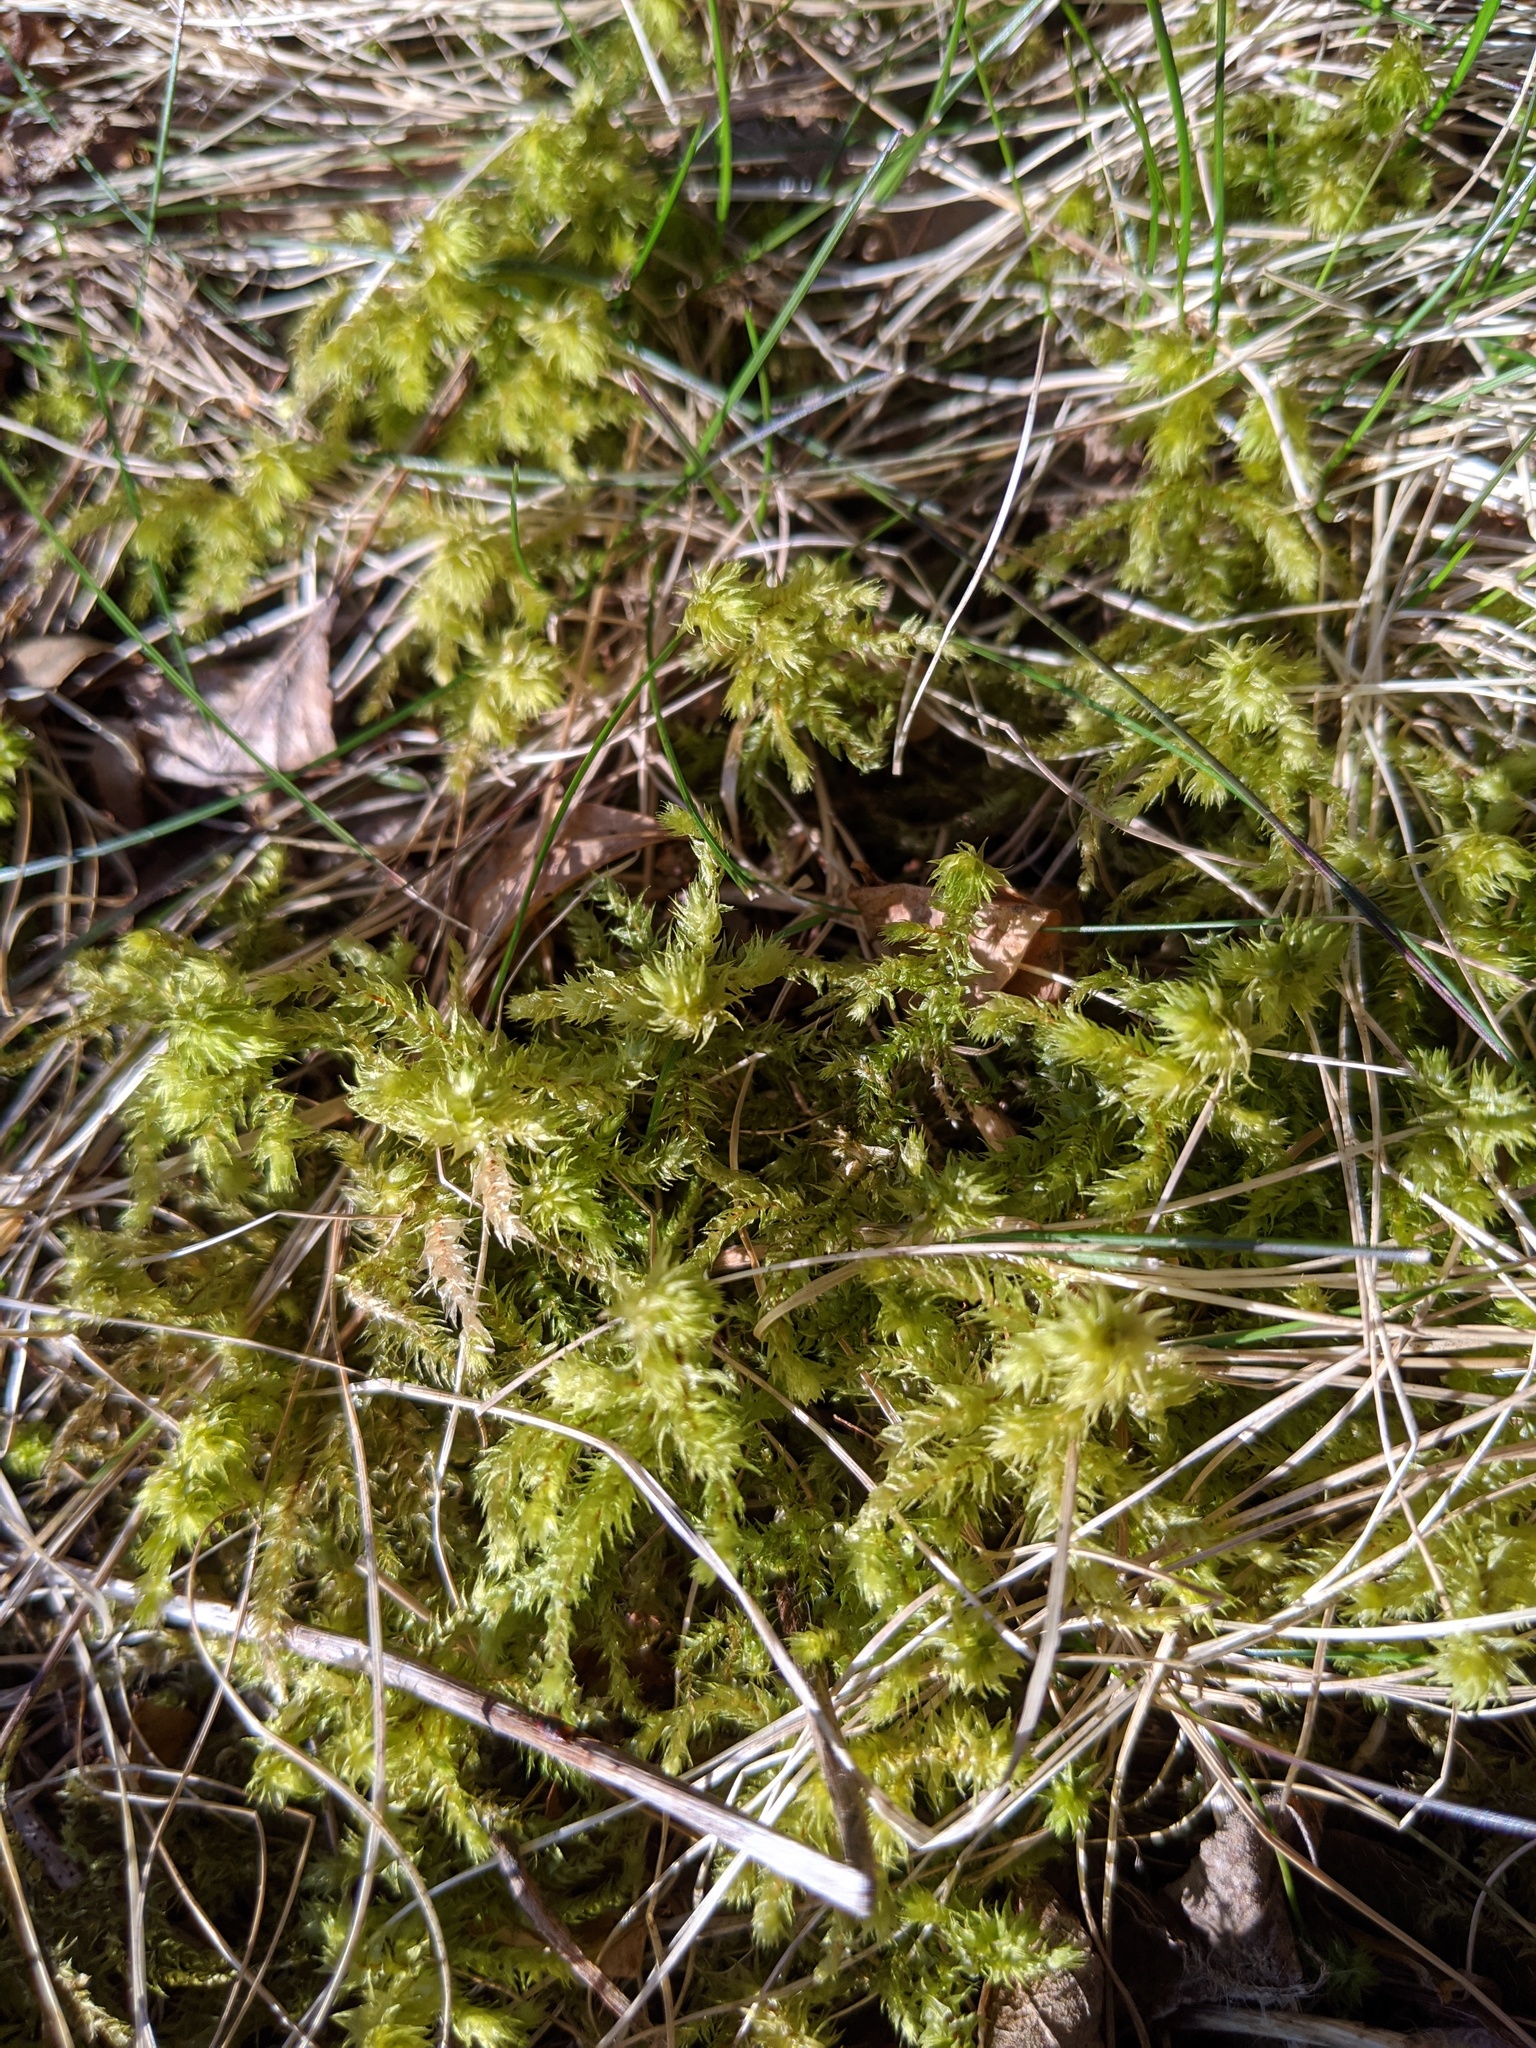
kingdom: Plantae
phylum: Bryophyta
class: Bryopsida
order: Hypnales
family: Hylocomiaceae
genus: Hylocomiadelphus
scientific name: Hylocomiadelphus triquetrus
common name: Rough goose neck moss
